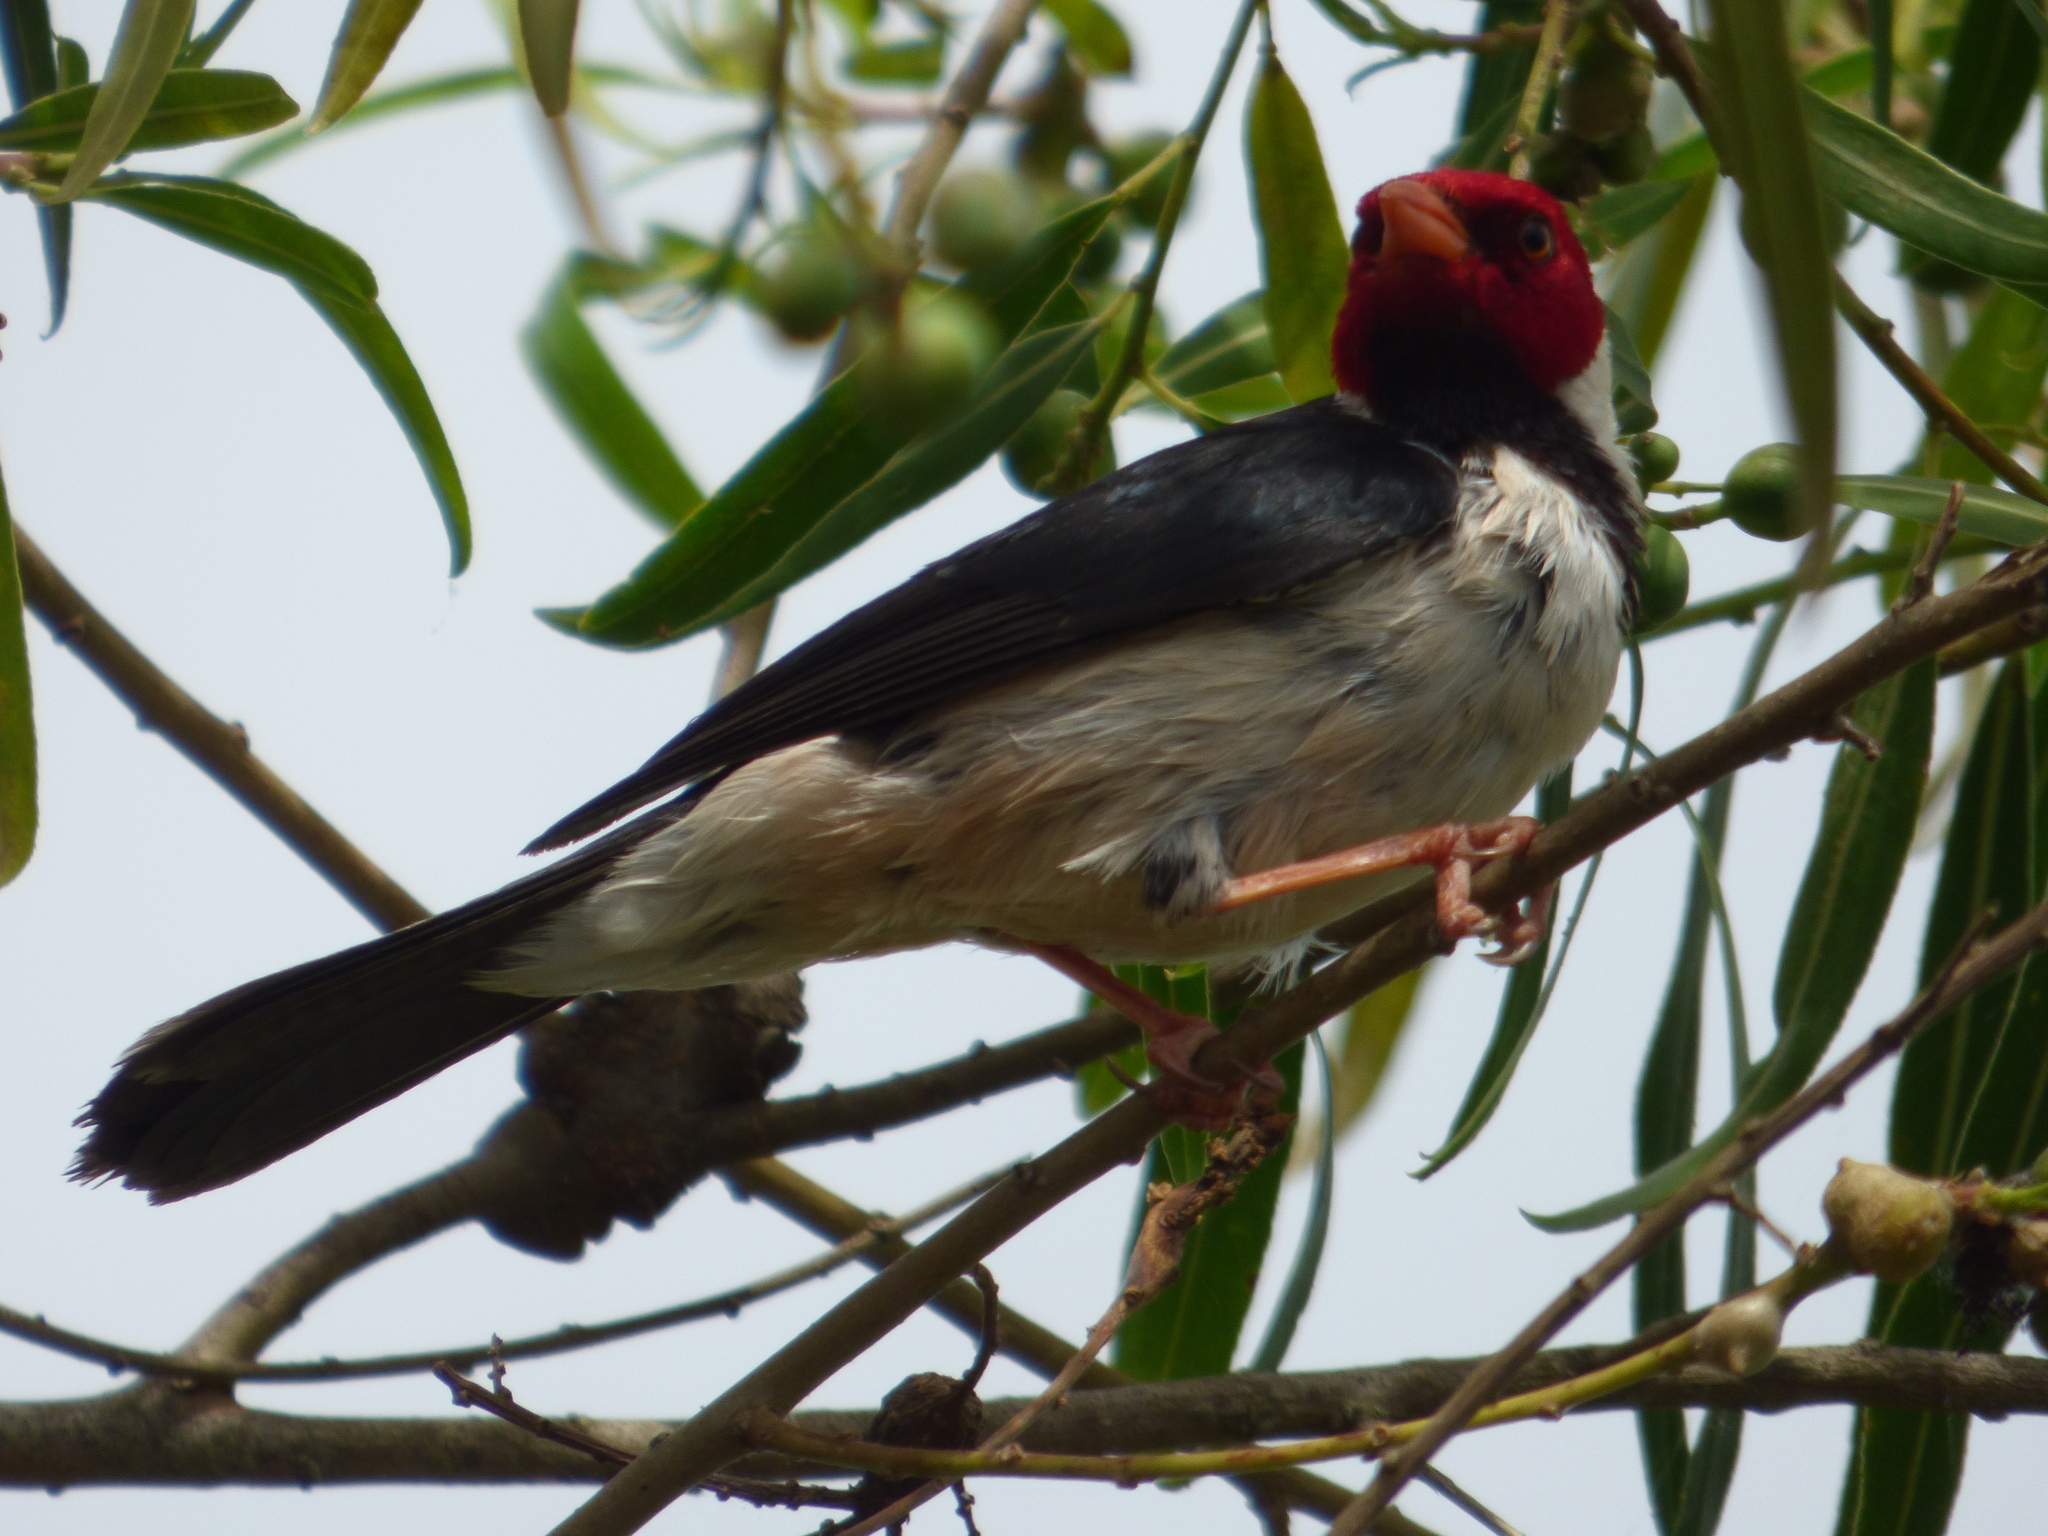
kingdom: Animalia
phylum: Chordata
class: Aves
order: Passeriformes
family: Thraupidae
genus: Paroaria
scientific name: Paroaria capitata
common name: Yellow-billed cardinal
